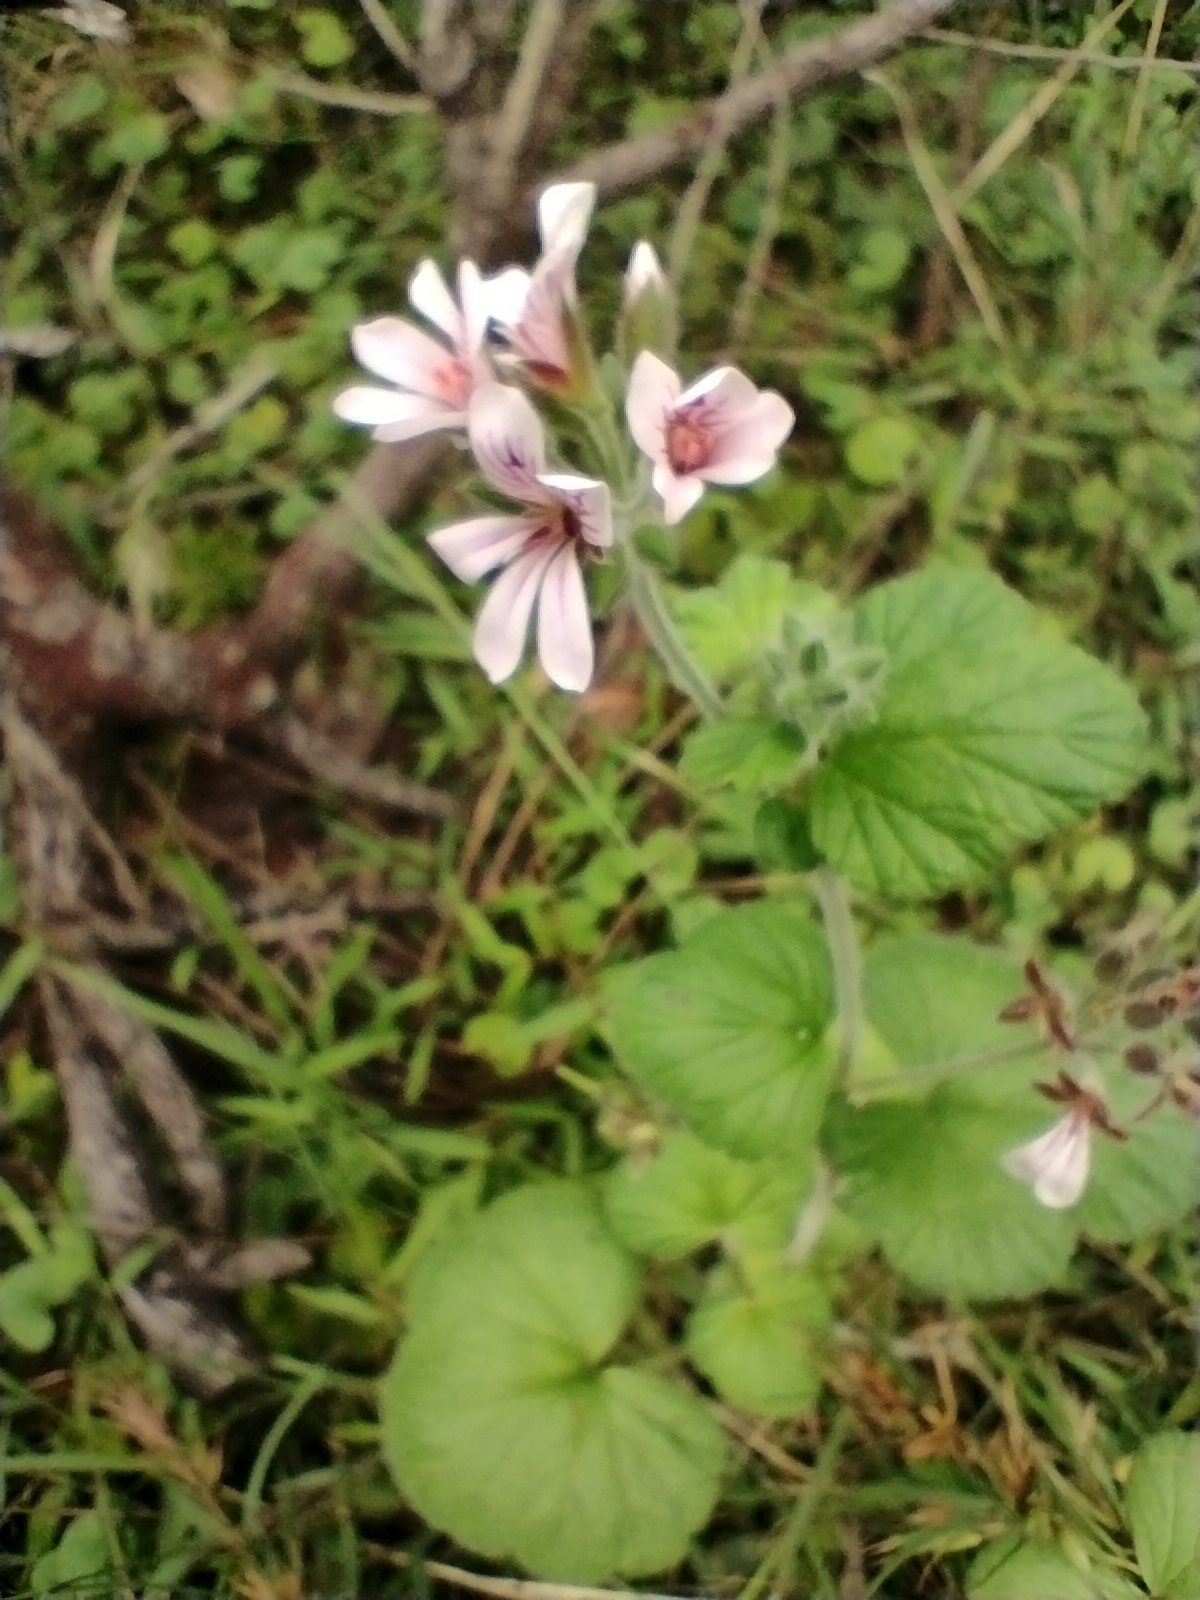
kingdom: Plantae
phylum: Tracheophyta
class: Magnoliopsida
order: Geraniales
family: Geraniaceae
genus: Pelargonium
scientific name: Pelargonium australe
